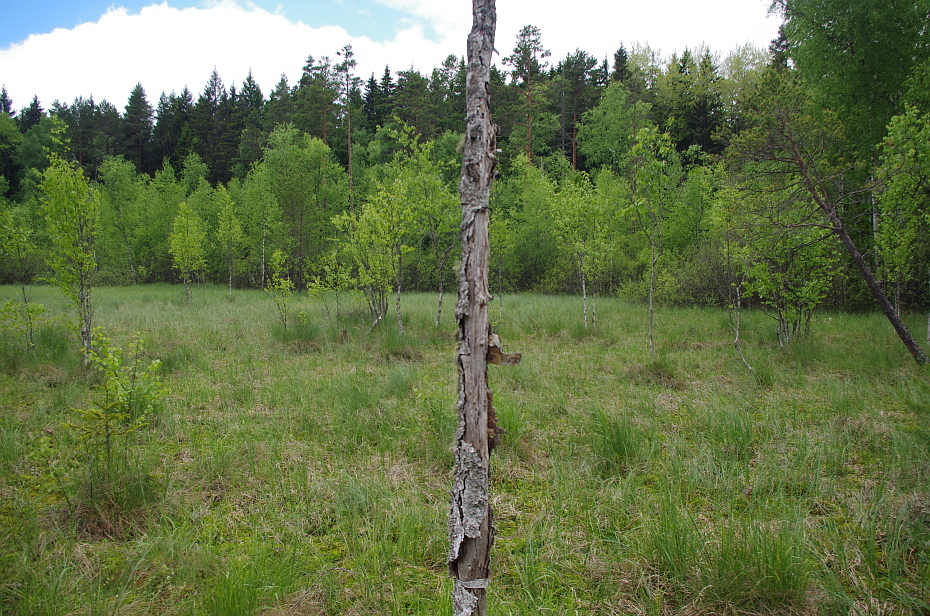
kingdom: Fungi
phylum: Ascomycota
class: Lecanoromycetes
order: Lecanorales
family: Parmeliaceae
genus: Evernia
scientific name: Evernia mesomorpha
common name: Boreal oak moss lichen
